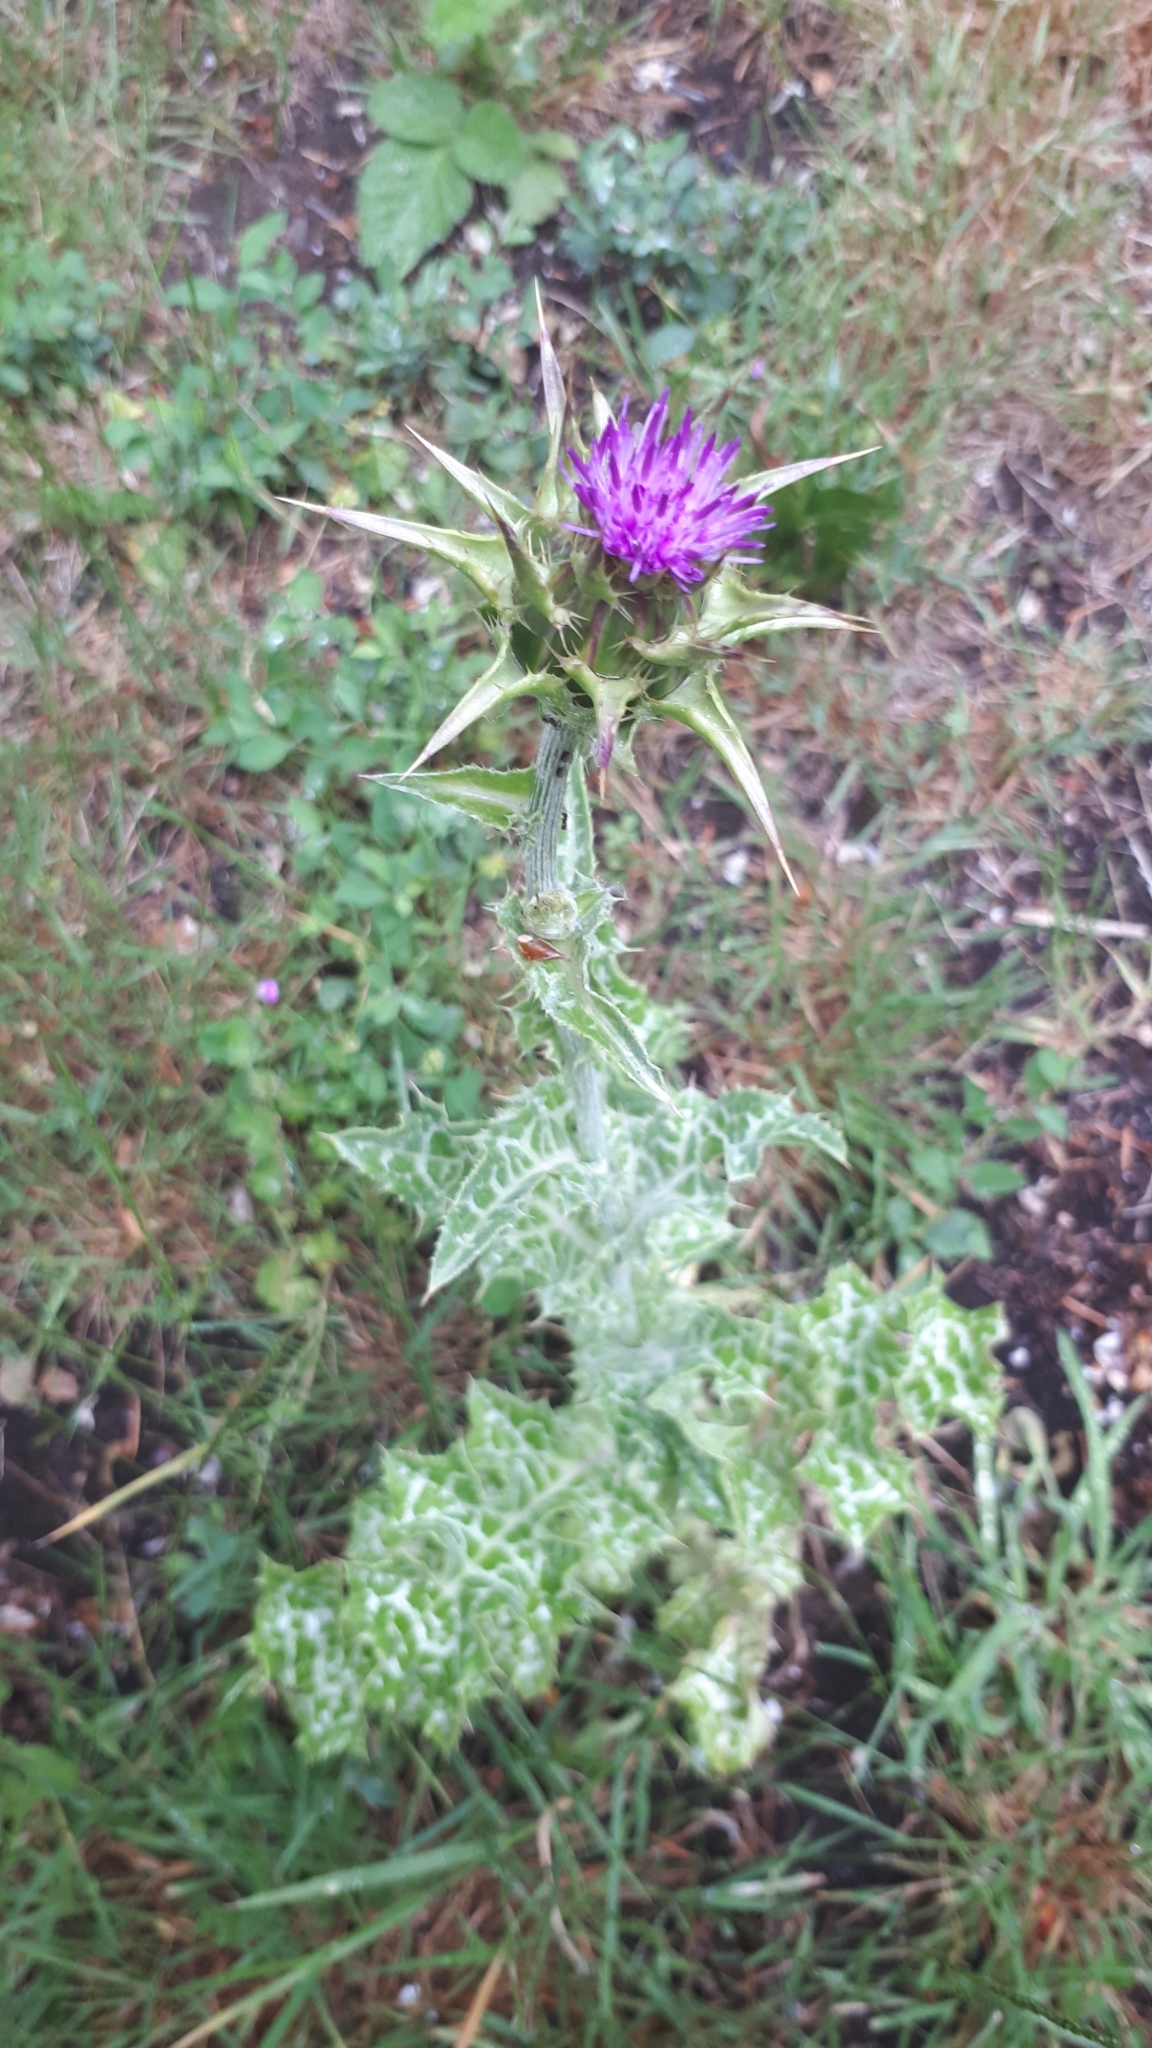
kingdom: Plantae
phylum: Tracheophyta
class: Magnoliopsida
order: Asterales
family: Asteraceae
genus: Silybum
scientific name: Silybum marianum
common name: Milk thistle
